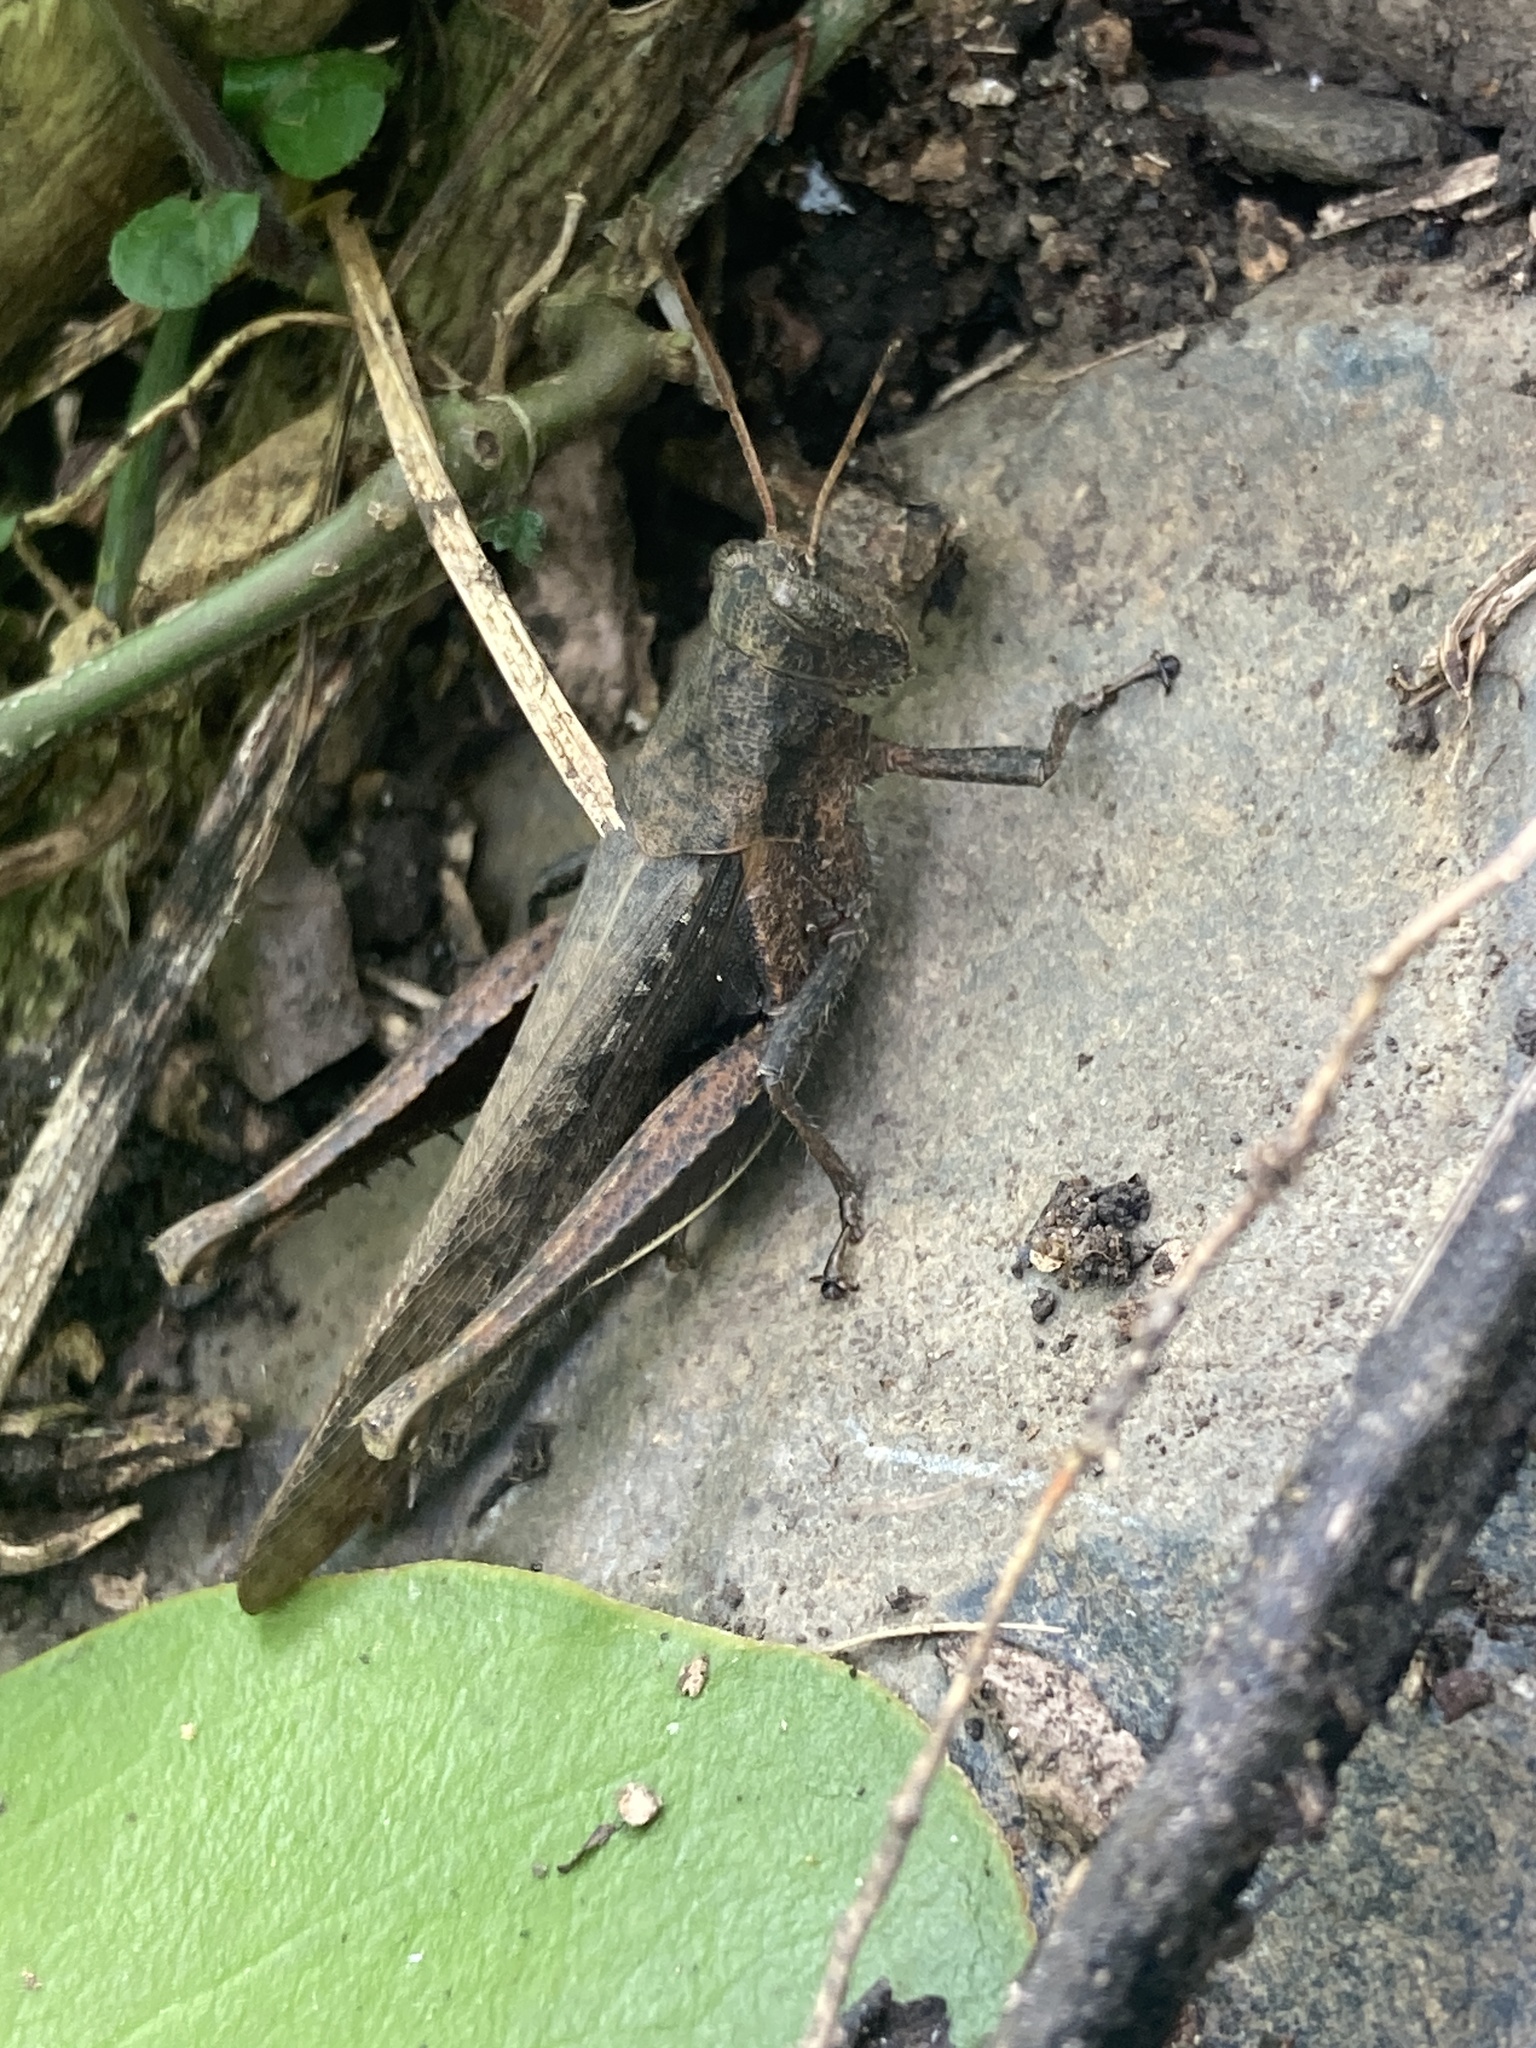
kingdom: Animalia
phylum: Arthropoda
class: Insecta
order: Orthoptera
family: Acrididae
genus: Abracris
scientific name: Abracris flavolineata
